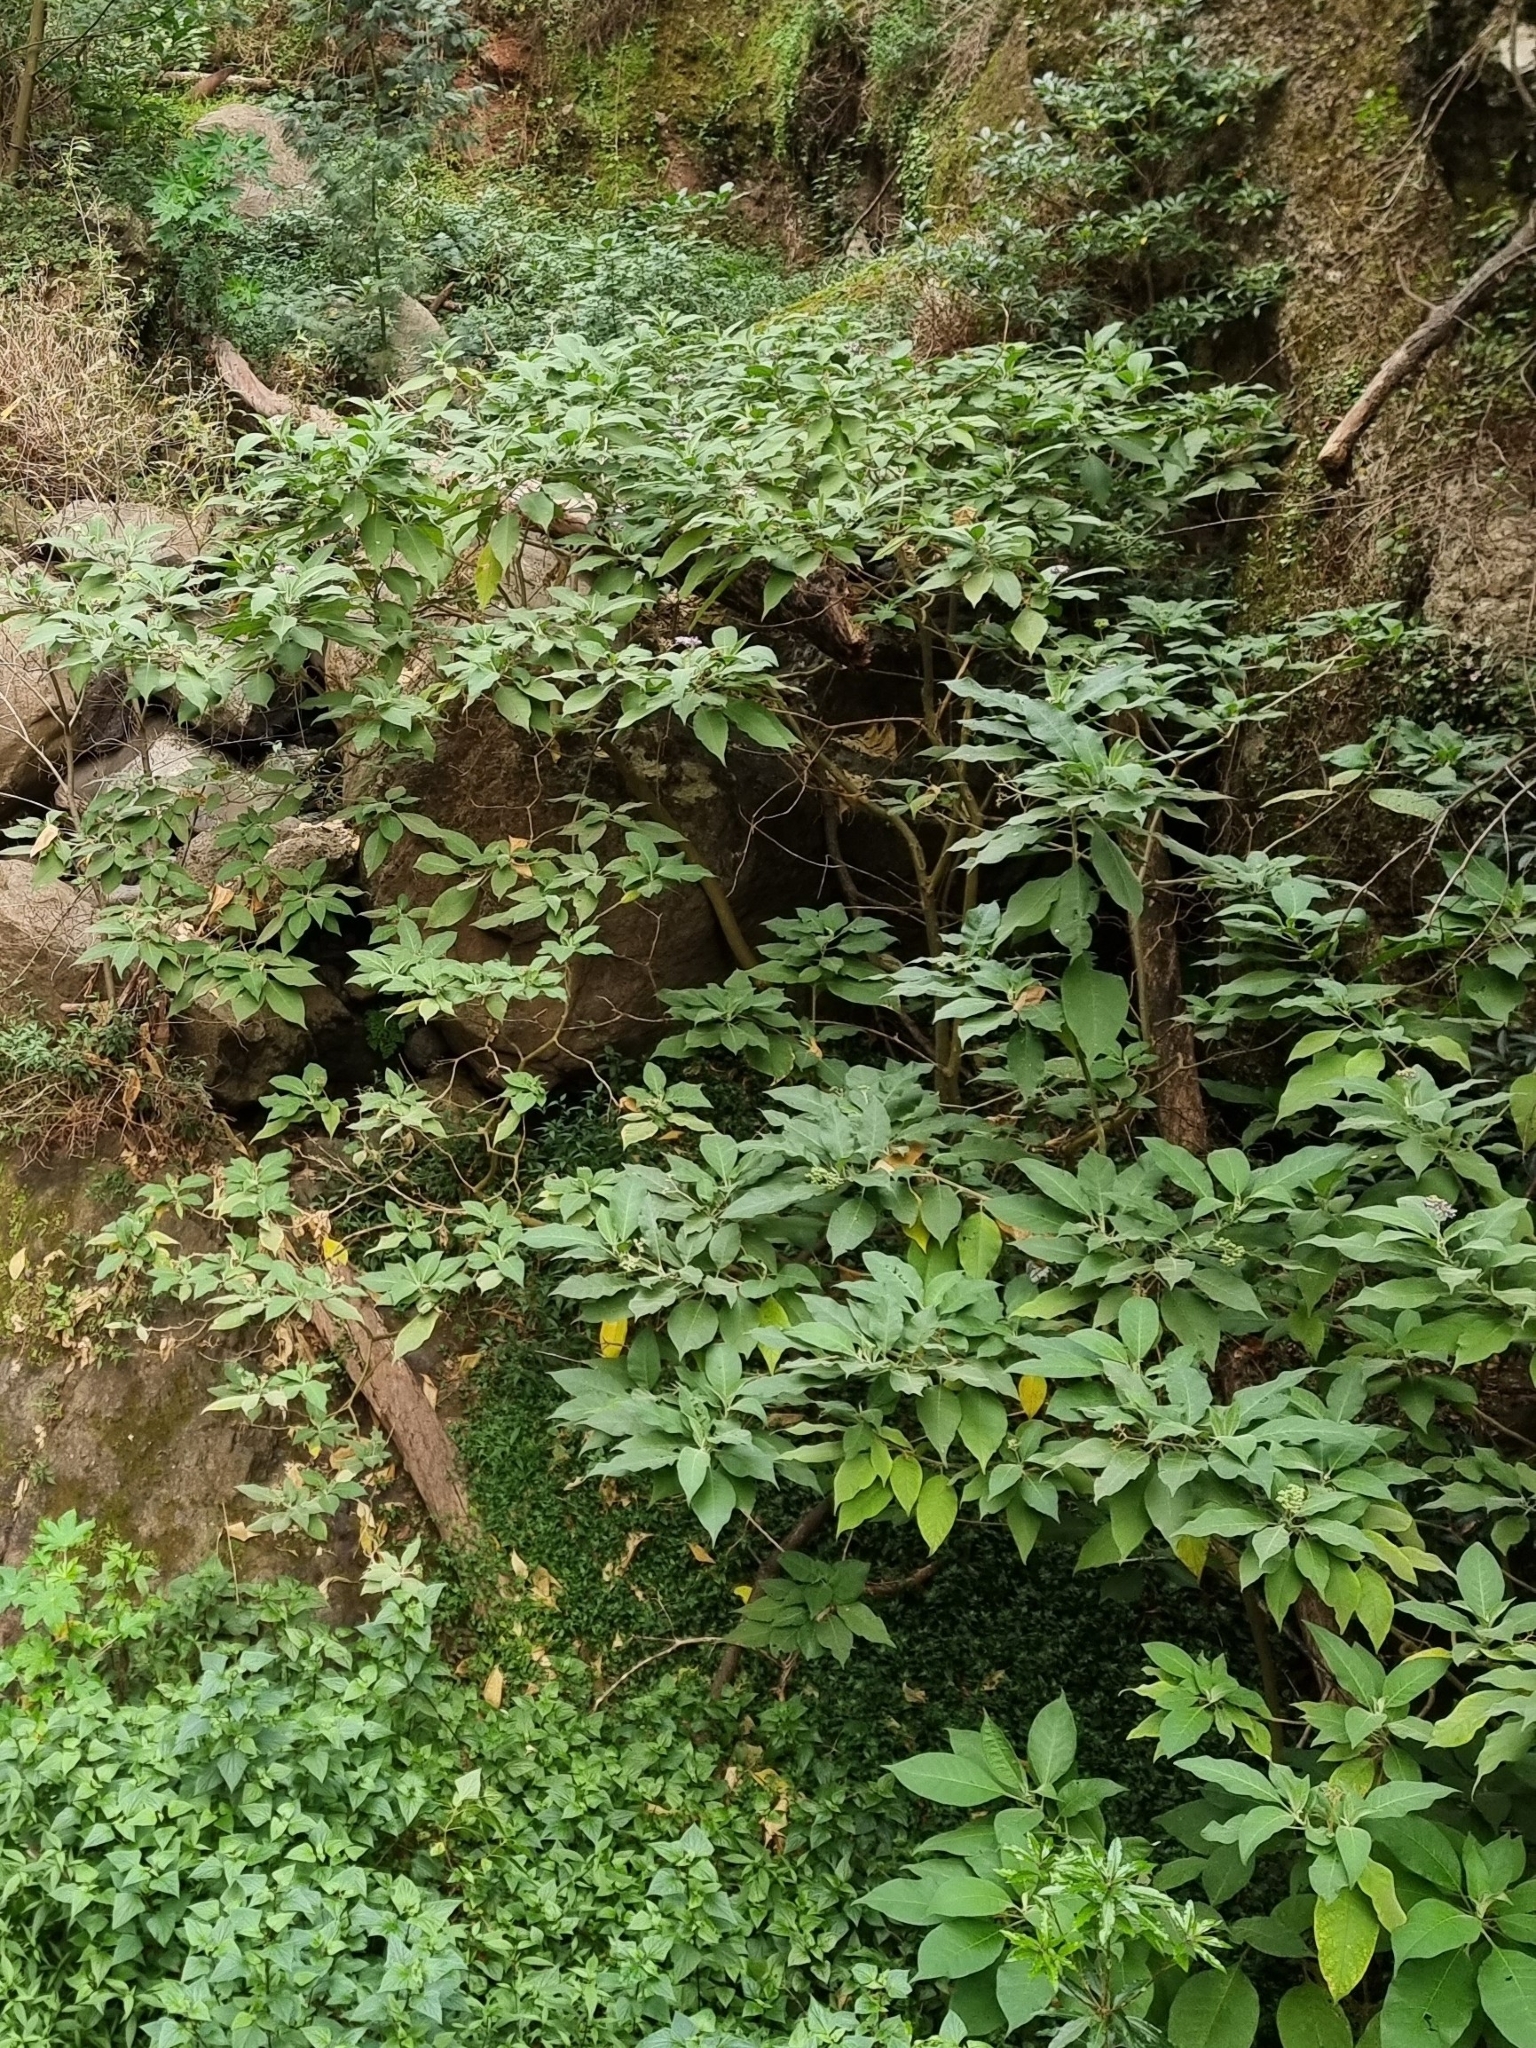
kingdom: Plantae
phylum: Tracheophyta
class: Magnoliopsida
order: Solanales
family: Solanaceae
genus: Solanum
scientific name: Solanum mauritianum
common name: Earleaf nightshade
